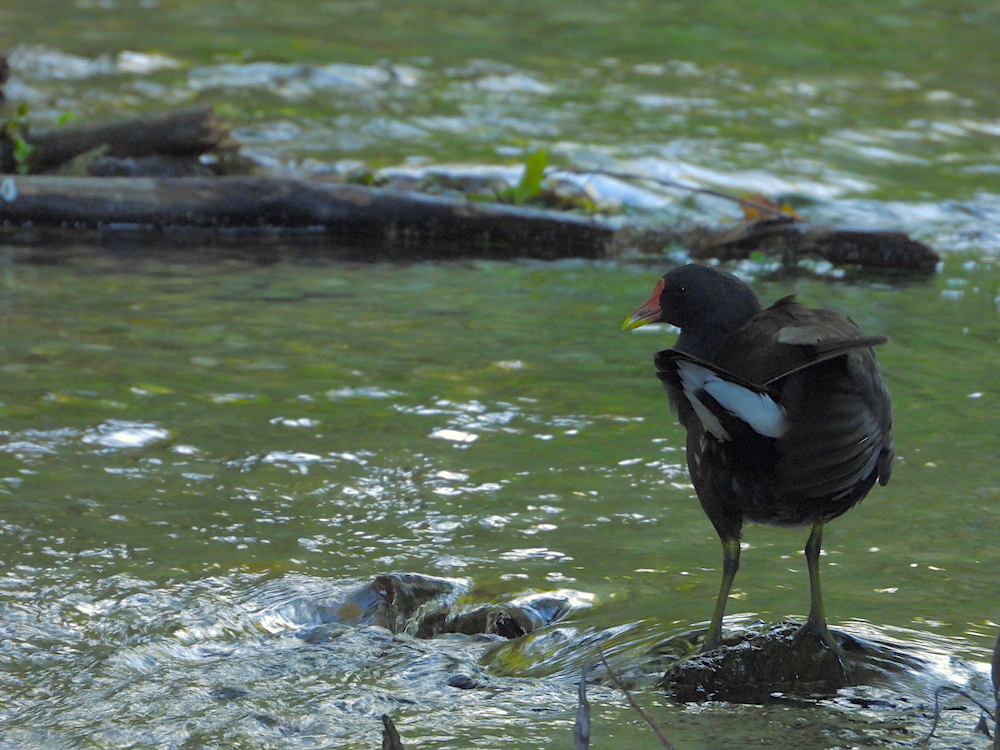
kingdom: Animalia
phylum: Chordata
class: Aves
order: Gruiformes
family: Rallidae
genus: Gallinula
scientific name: Gallinula chloropus
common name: Common moorhen
